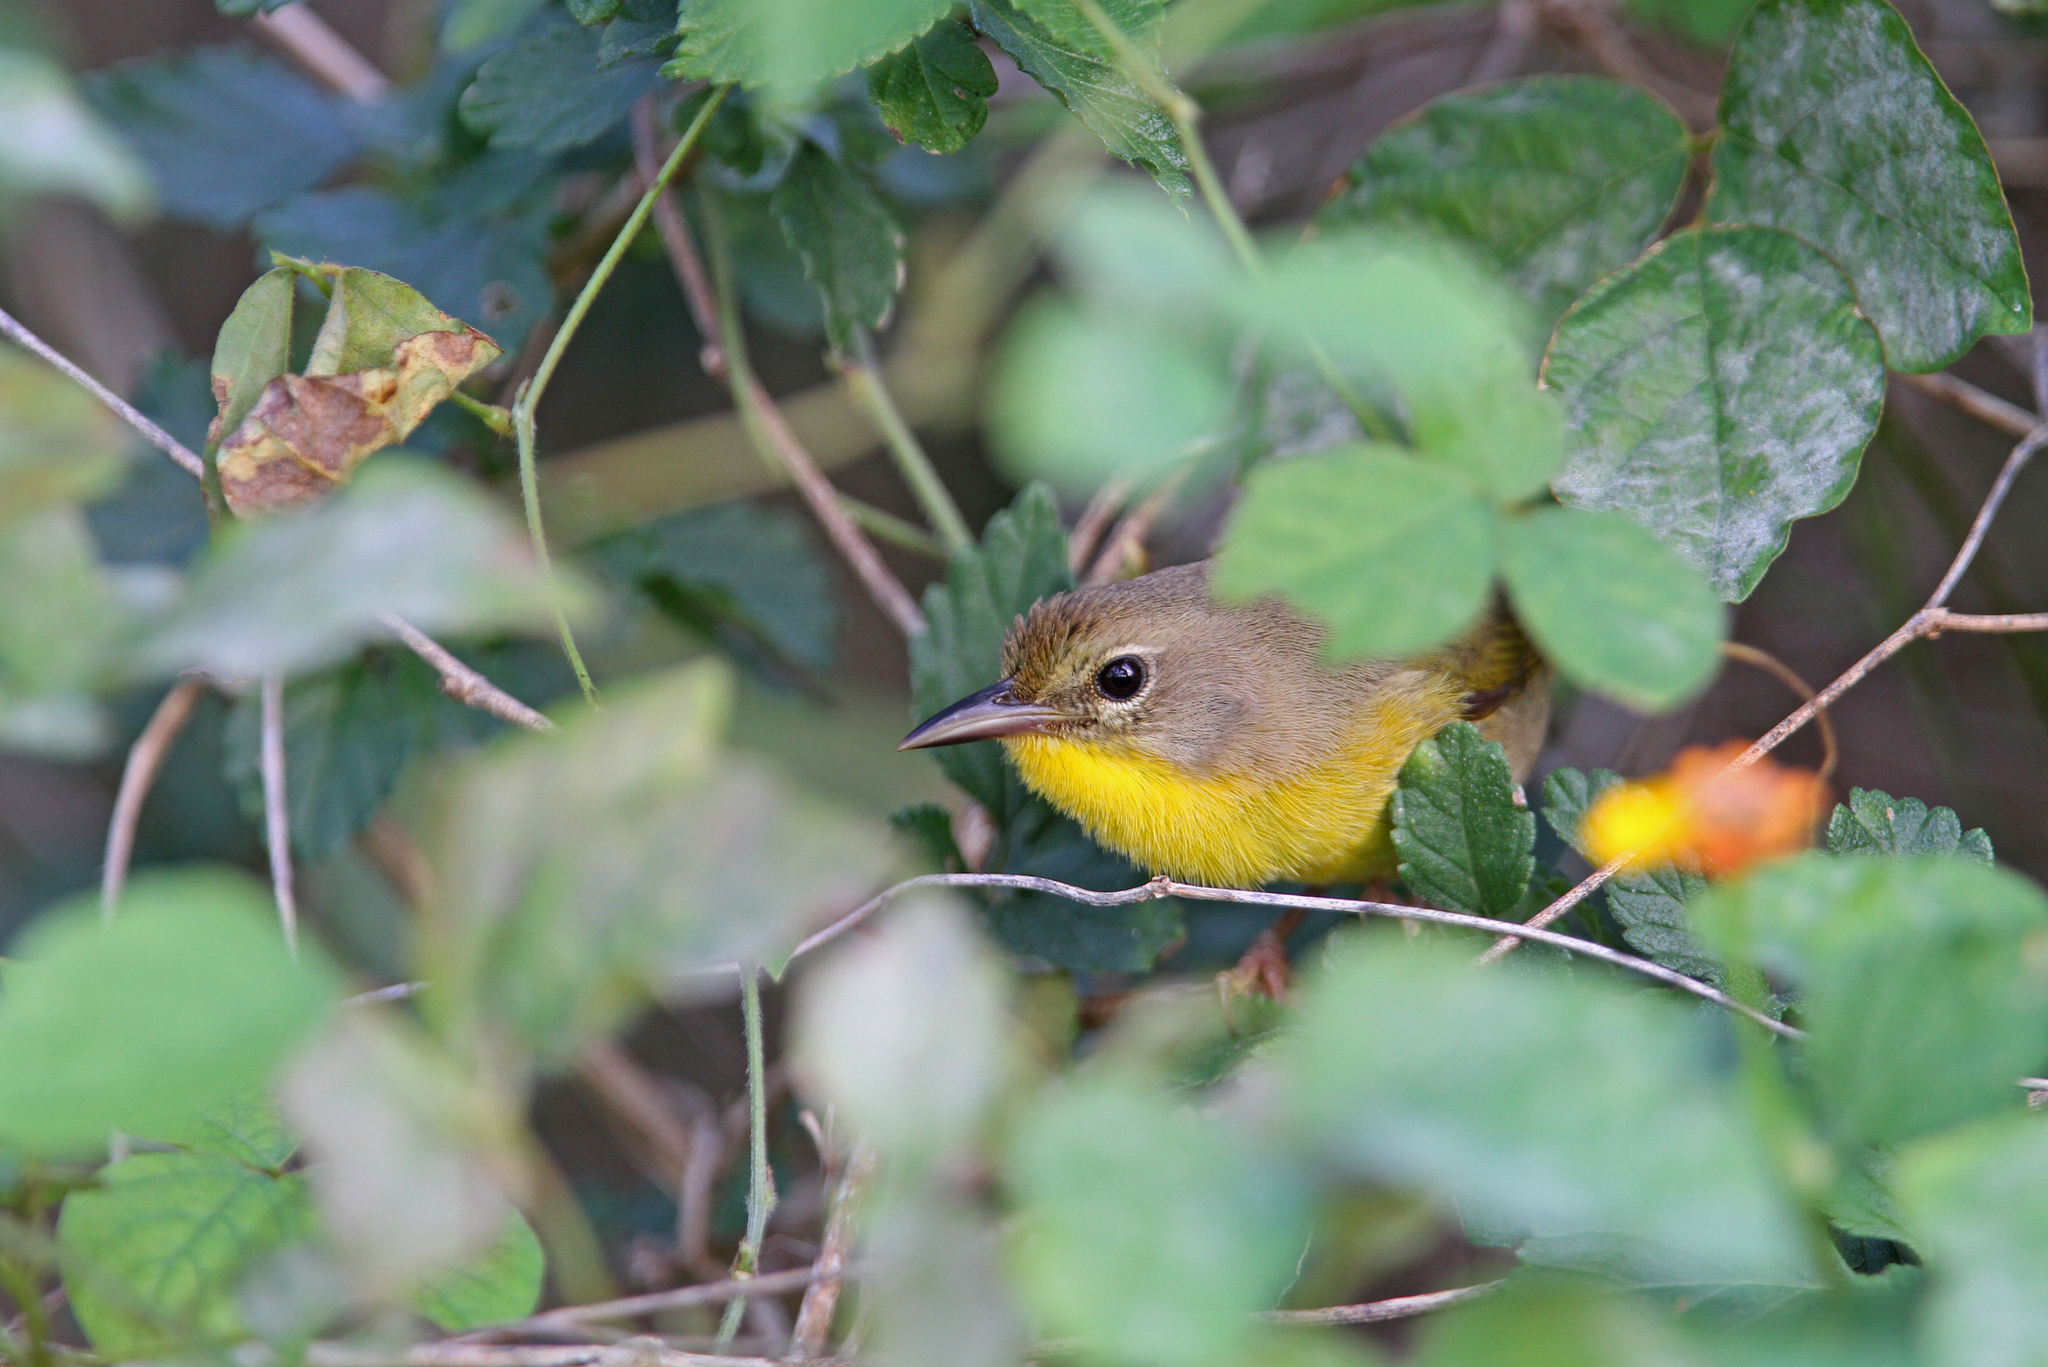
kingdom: Animalia
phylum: Chordata
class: Aves
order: Passeriformes
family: Parulidae
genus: Geothlypis
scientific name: Geothlypis rostrata
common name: Bahama yellowthroat
